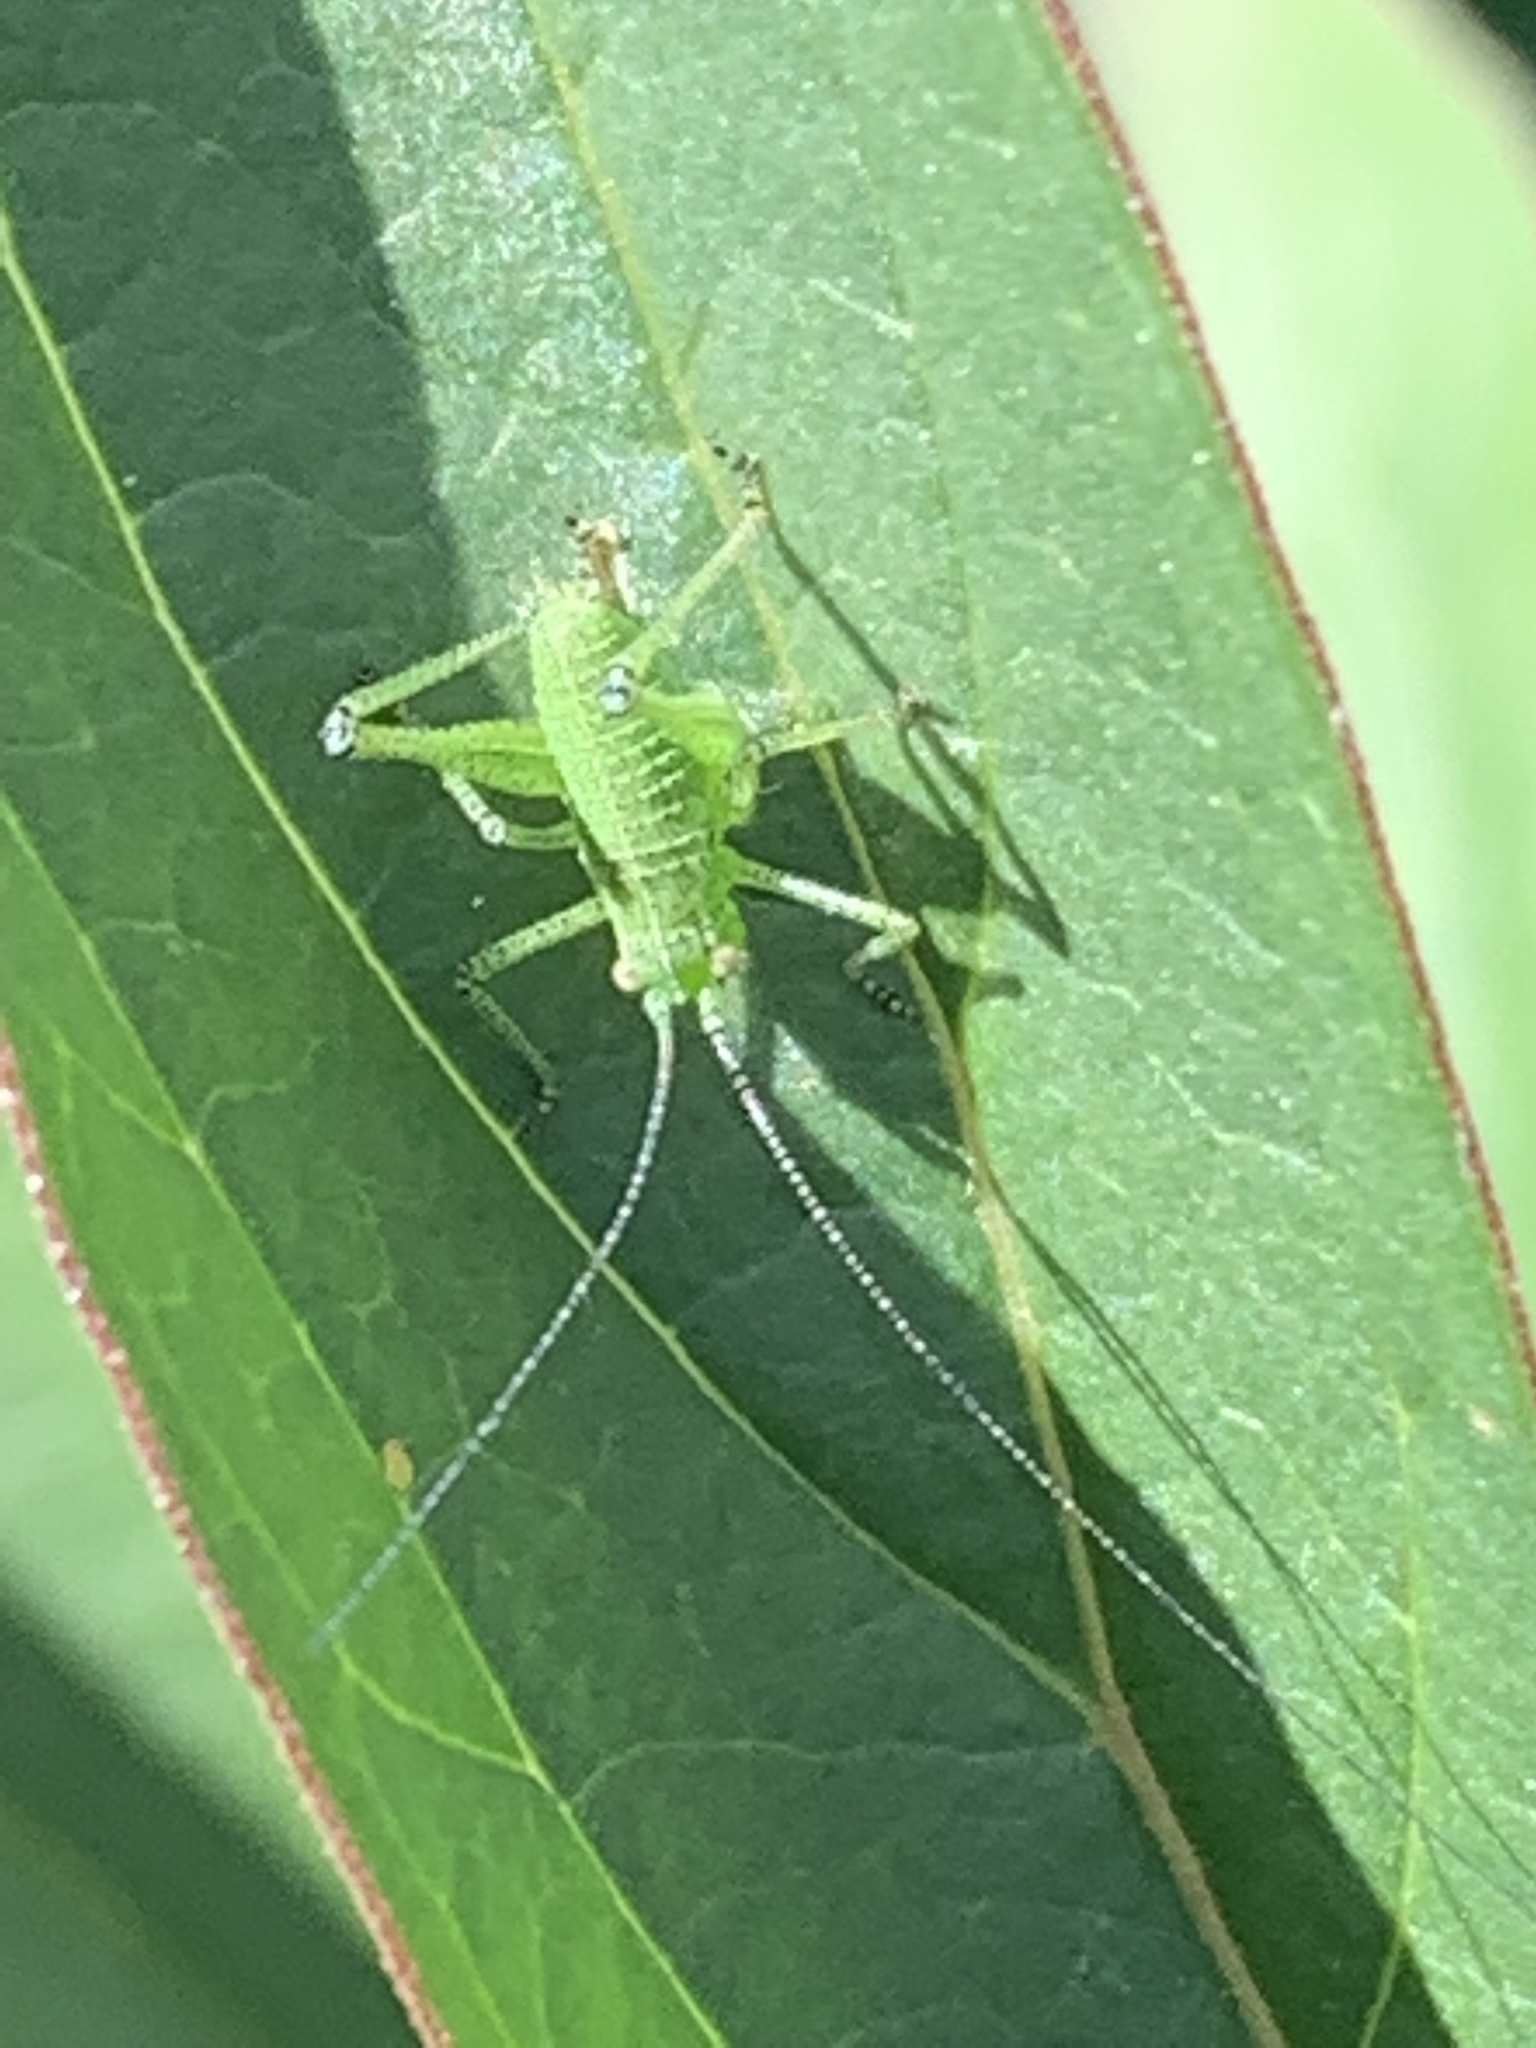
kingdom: Animalia
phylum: Arthropoda
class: Insecta
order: Orthoptera
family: Tettigoniidae
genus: Leptophyes
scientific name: Leptophyes punctatissima
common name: Speckled bush-cricket
